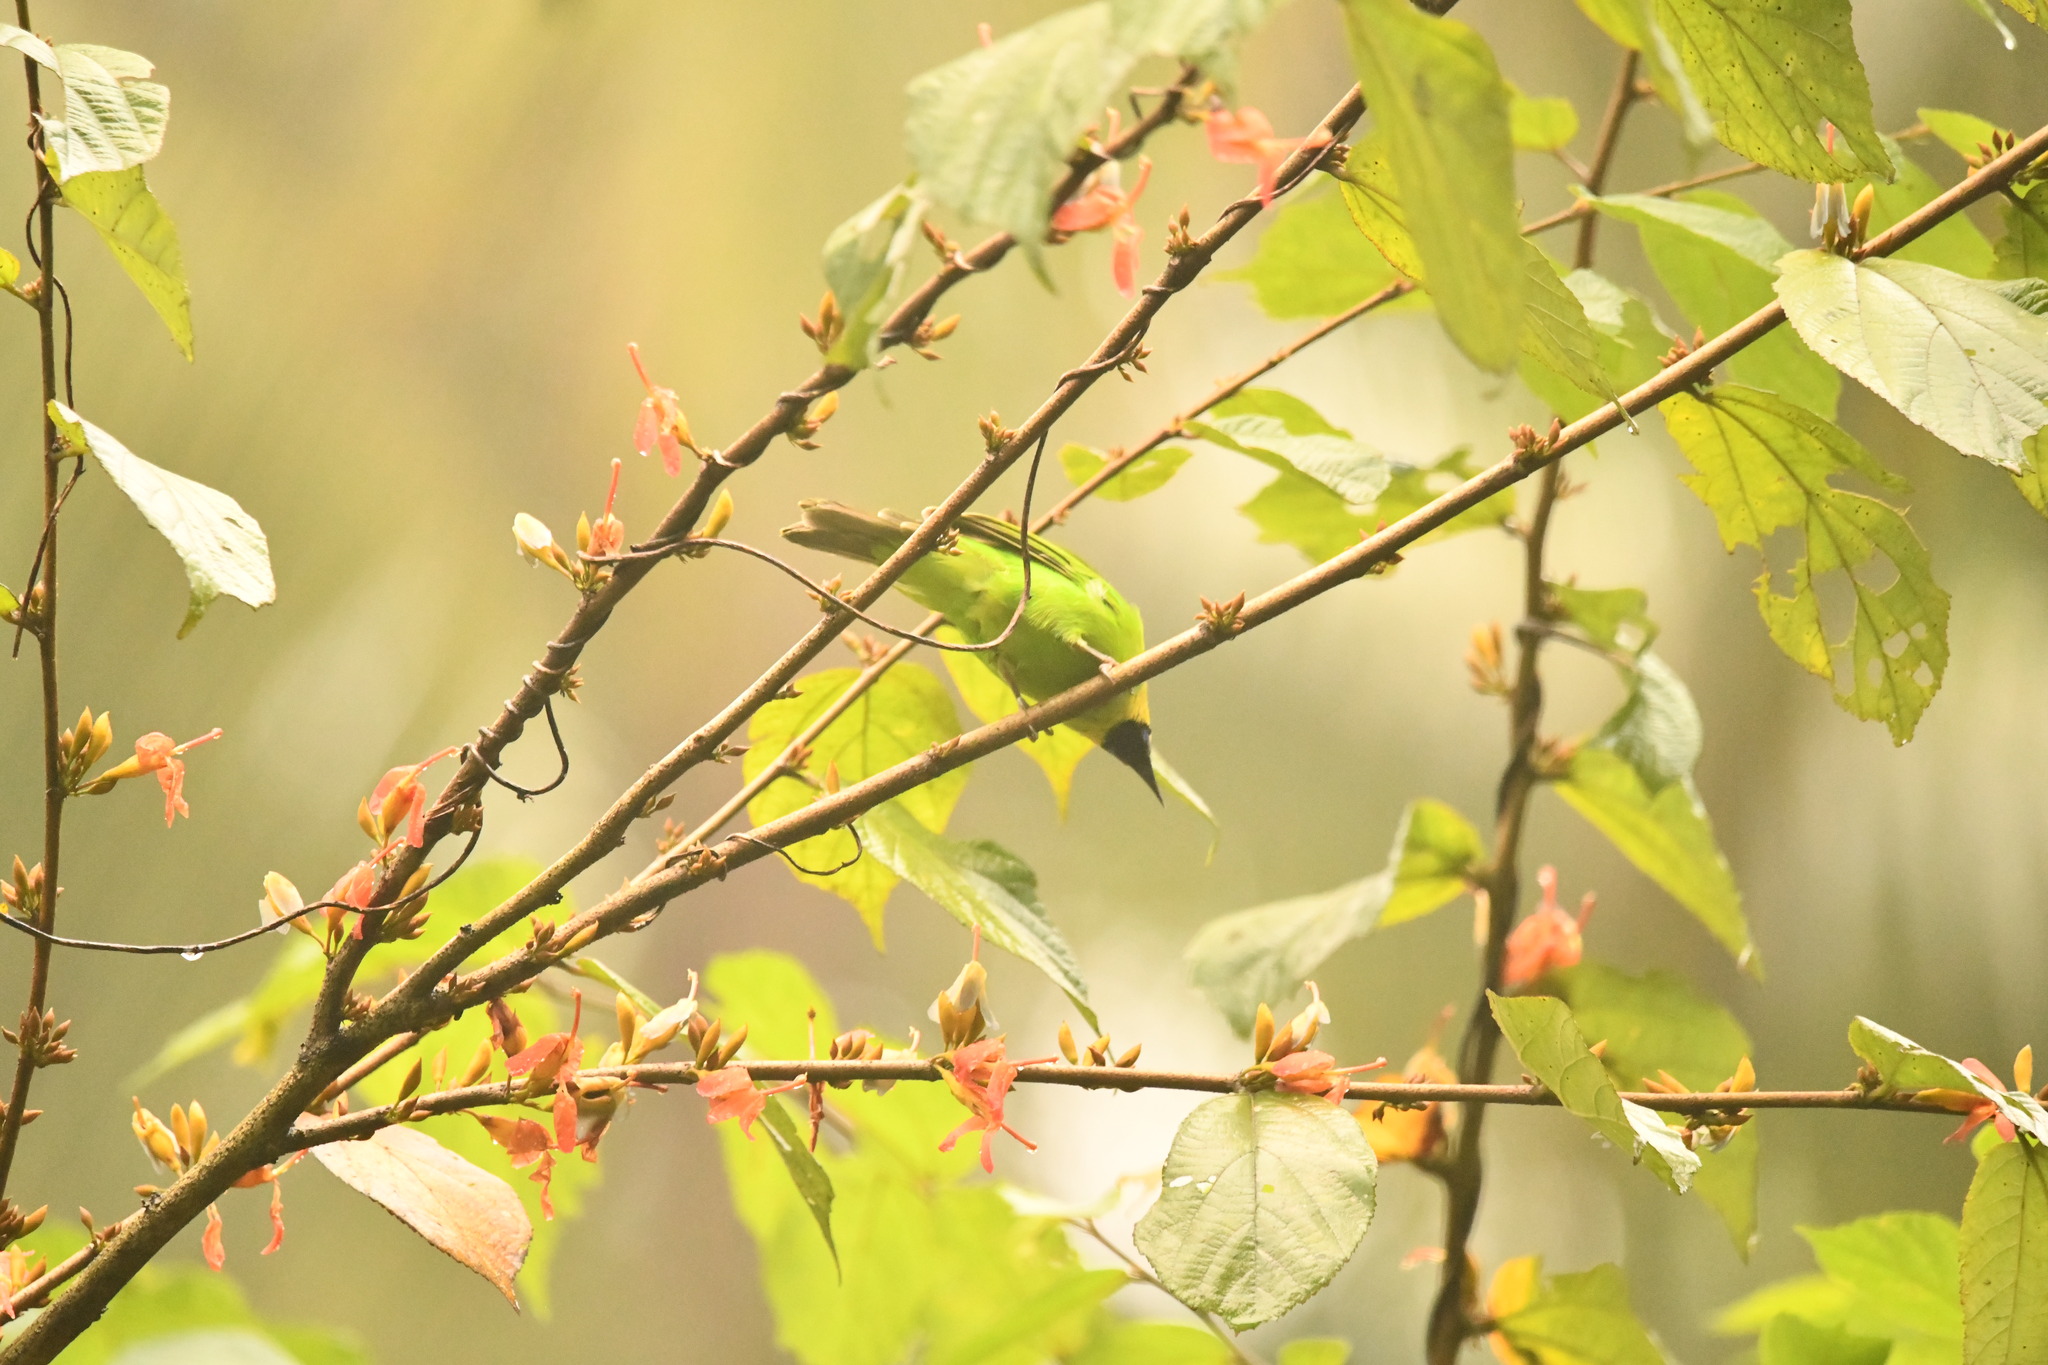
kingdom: Animalia
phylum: Chordata
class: Aves
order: Passeriformes
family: Chloropseidae
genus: Chloropsis
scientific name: Chloropsis jerdoni
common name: Jerdon's leafbird
